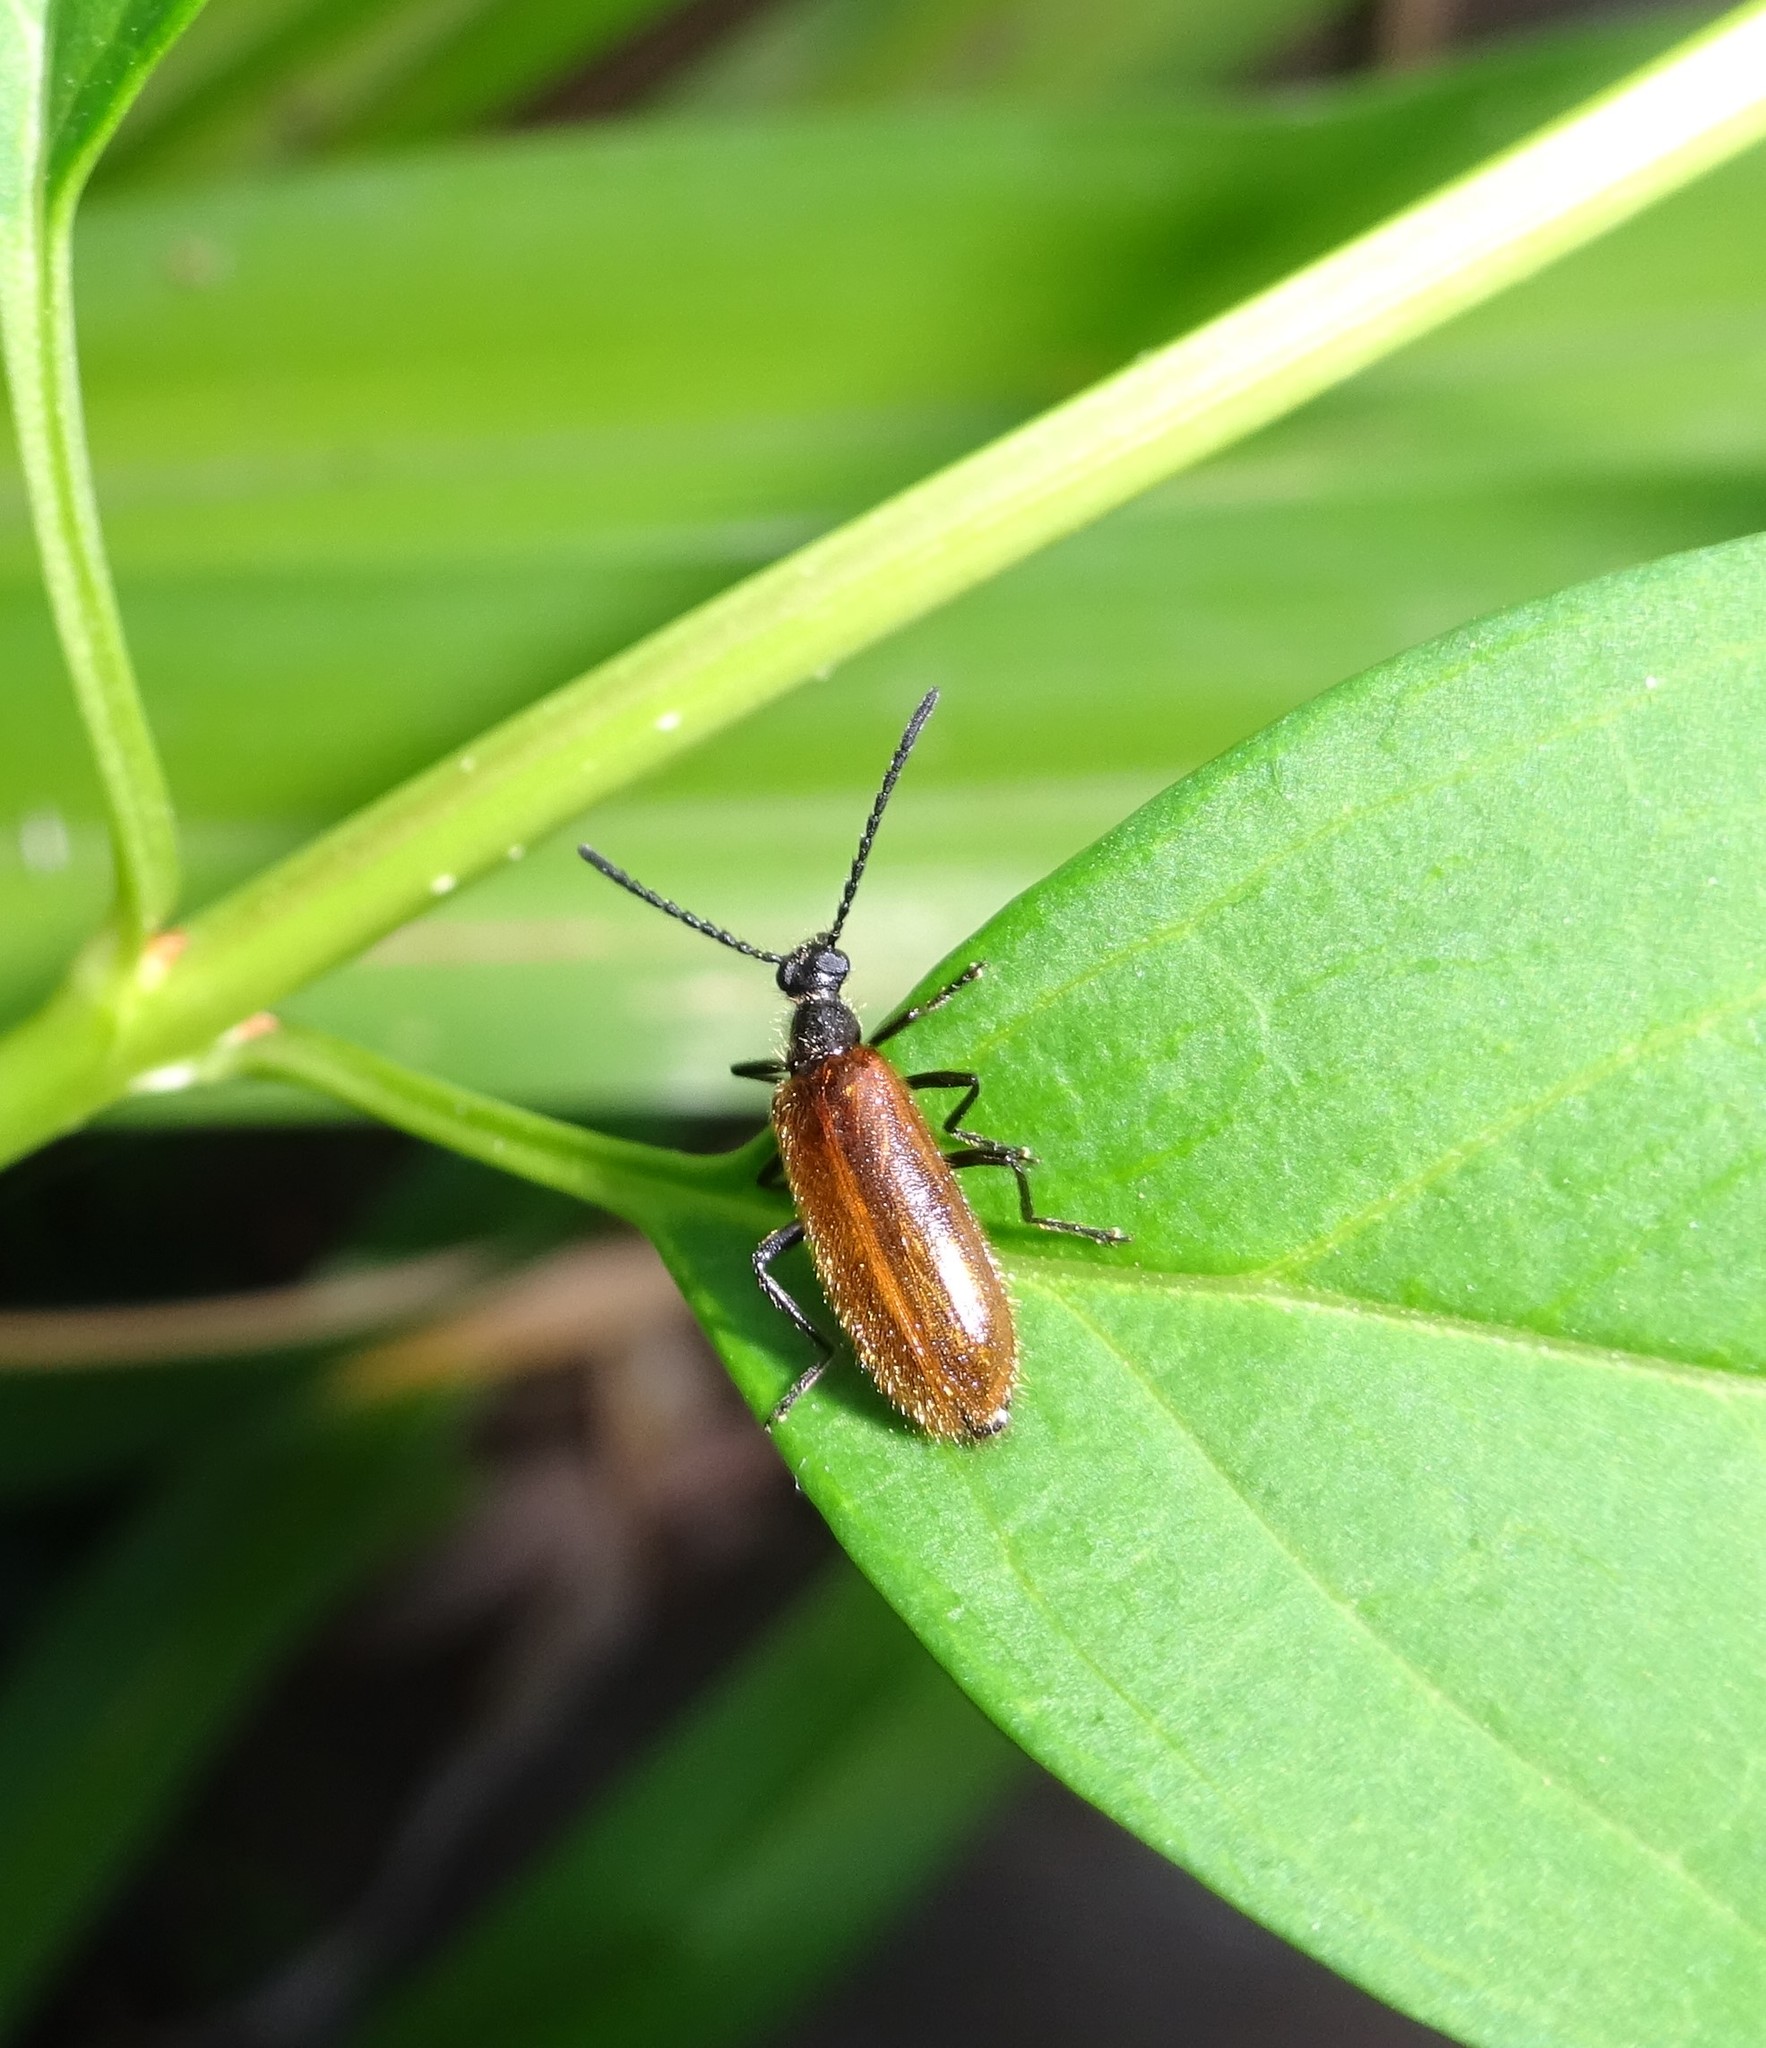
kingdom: Animalia
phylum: Arthropoda
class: Insecta
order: Coleoptera
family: Tenebrionidae
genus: Lagria
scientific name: Lagria hirta
